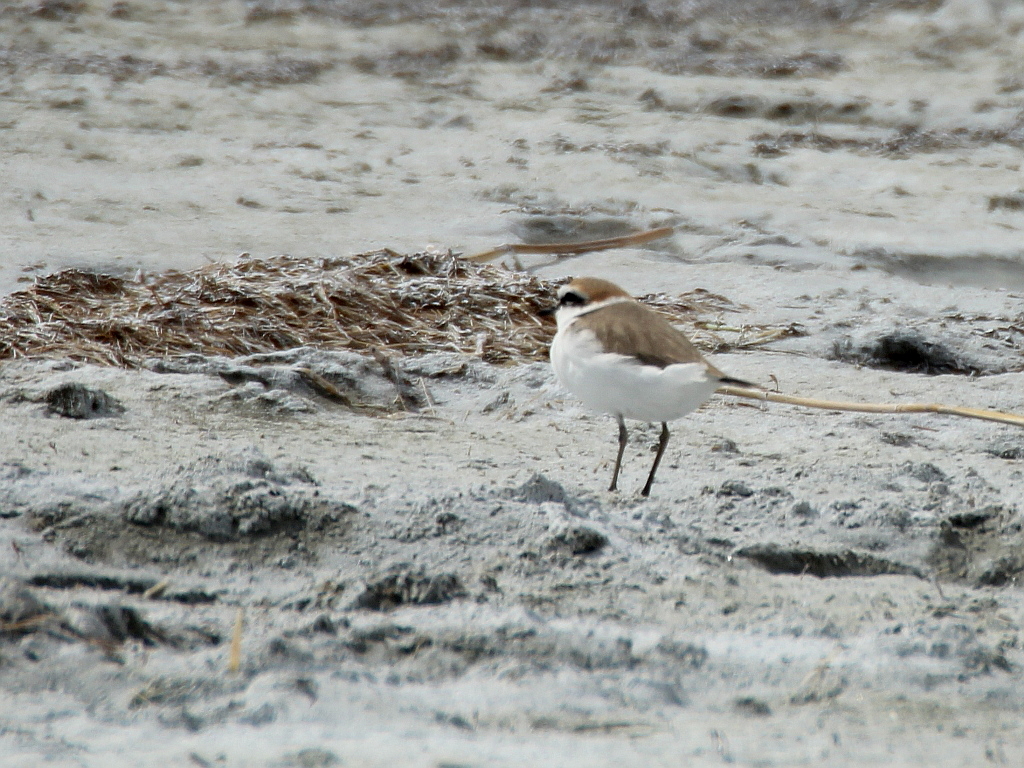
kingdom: Animalia
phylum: Chordata
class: Aves
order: Charadriiformes
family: Charadriidae
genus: Charadrius
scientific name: Charadrius alexandrinus
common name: Kentish plover
